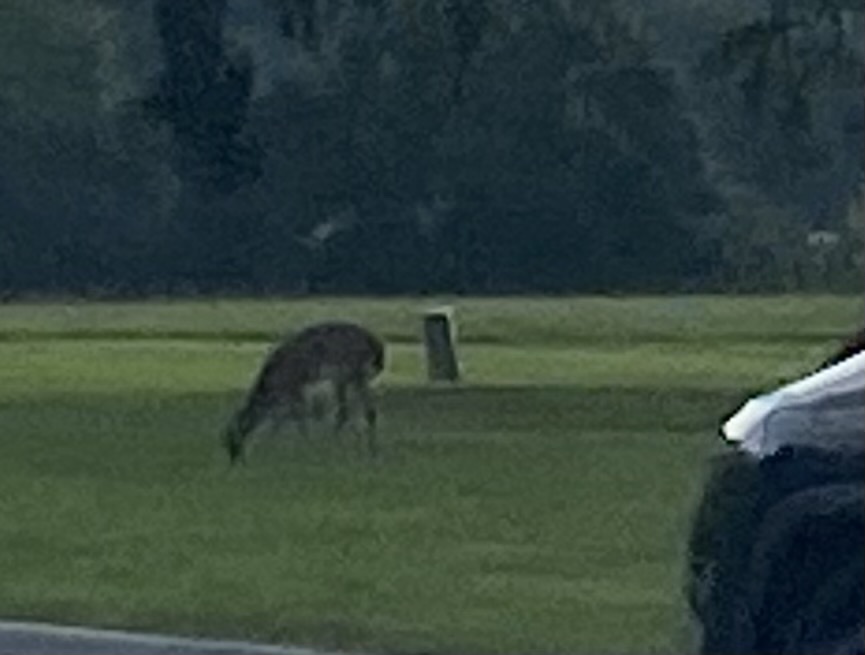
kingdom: Animalia
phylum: Chordata
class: Mammalia
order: Artiodactyla
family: Cervidae
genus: Odocoileus
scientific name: Odocoileus virginianus
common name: White-tailed deer
